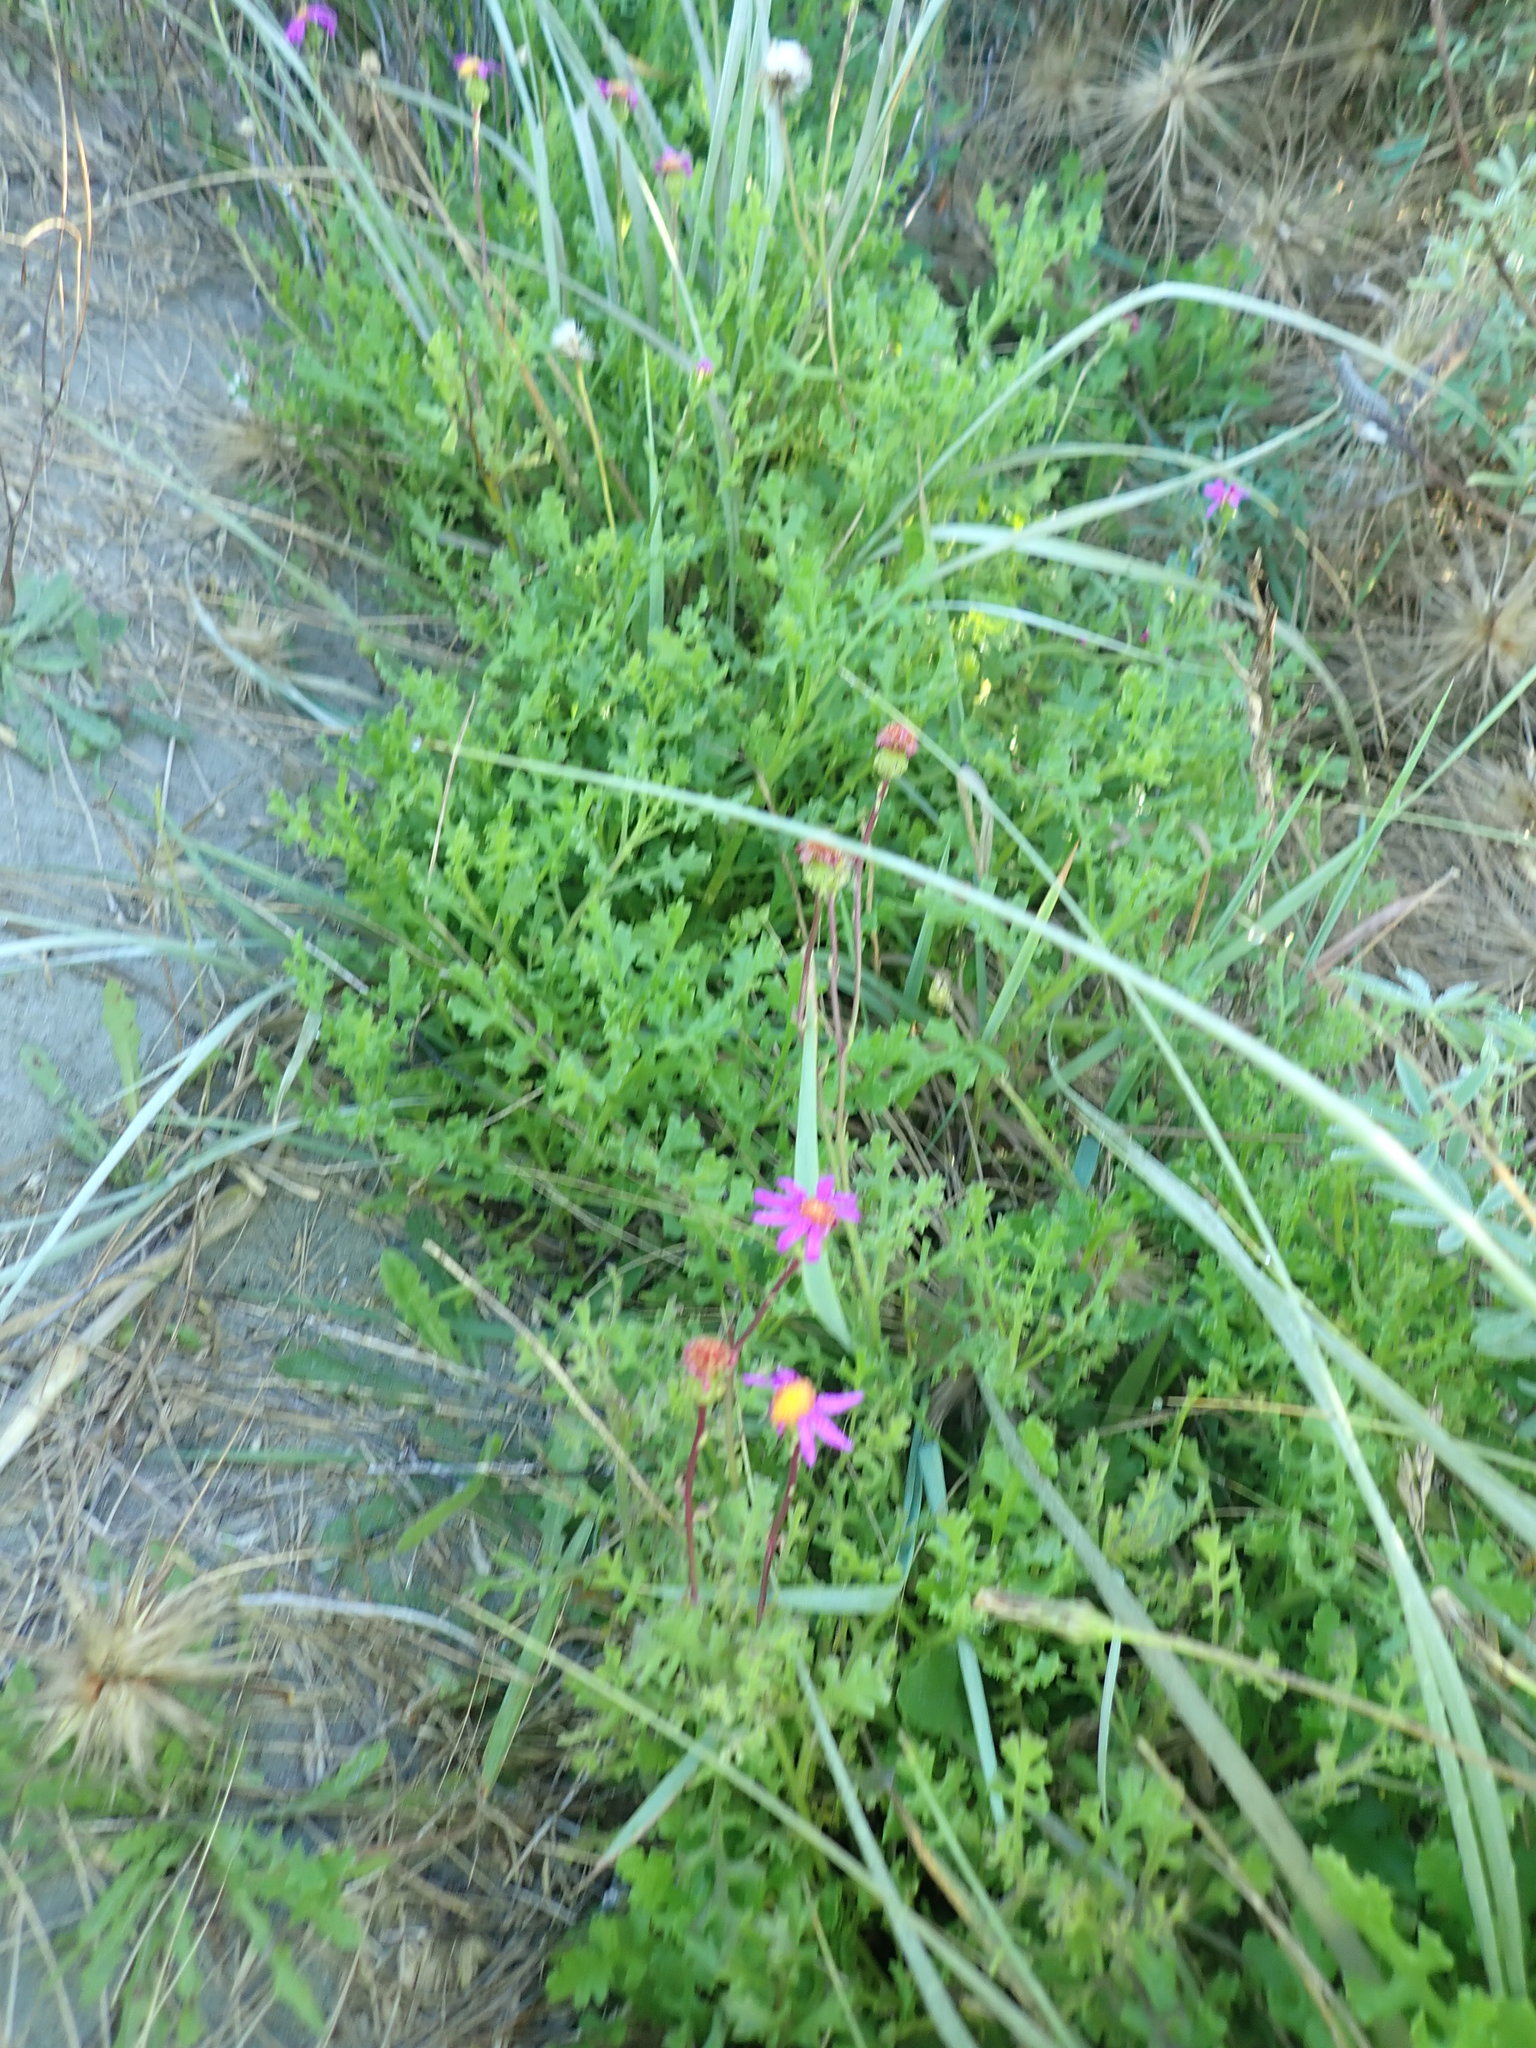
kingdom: Plantae
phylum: Tracheophyta
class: Magnoliopsida
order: Asterales
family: Asteraceae
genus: Senecio
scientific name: Senecio elegans
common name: Purple groundsel
